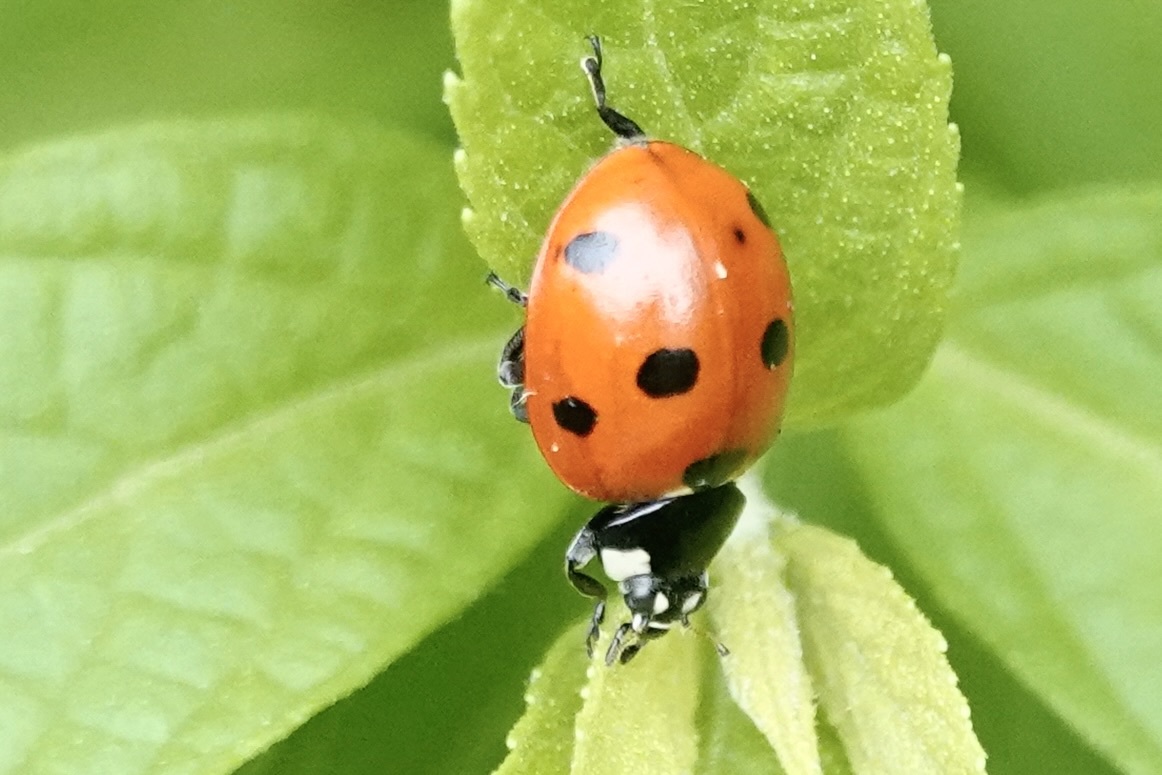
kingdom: Animalia
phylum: Arthropoda
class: Insecta
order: Coleoptera
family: Coccinellidae
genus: Coccinella
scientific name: Coccinella septempunctata
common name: Sevenspotted lady beetle
